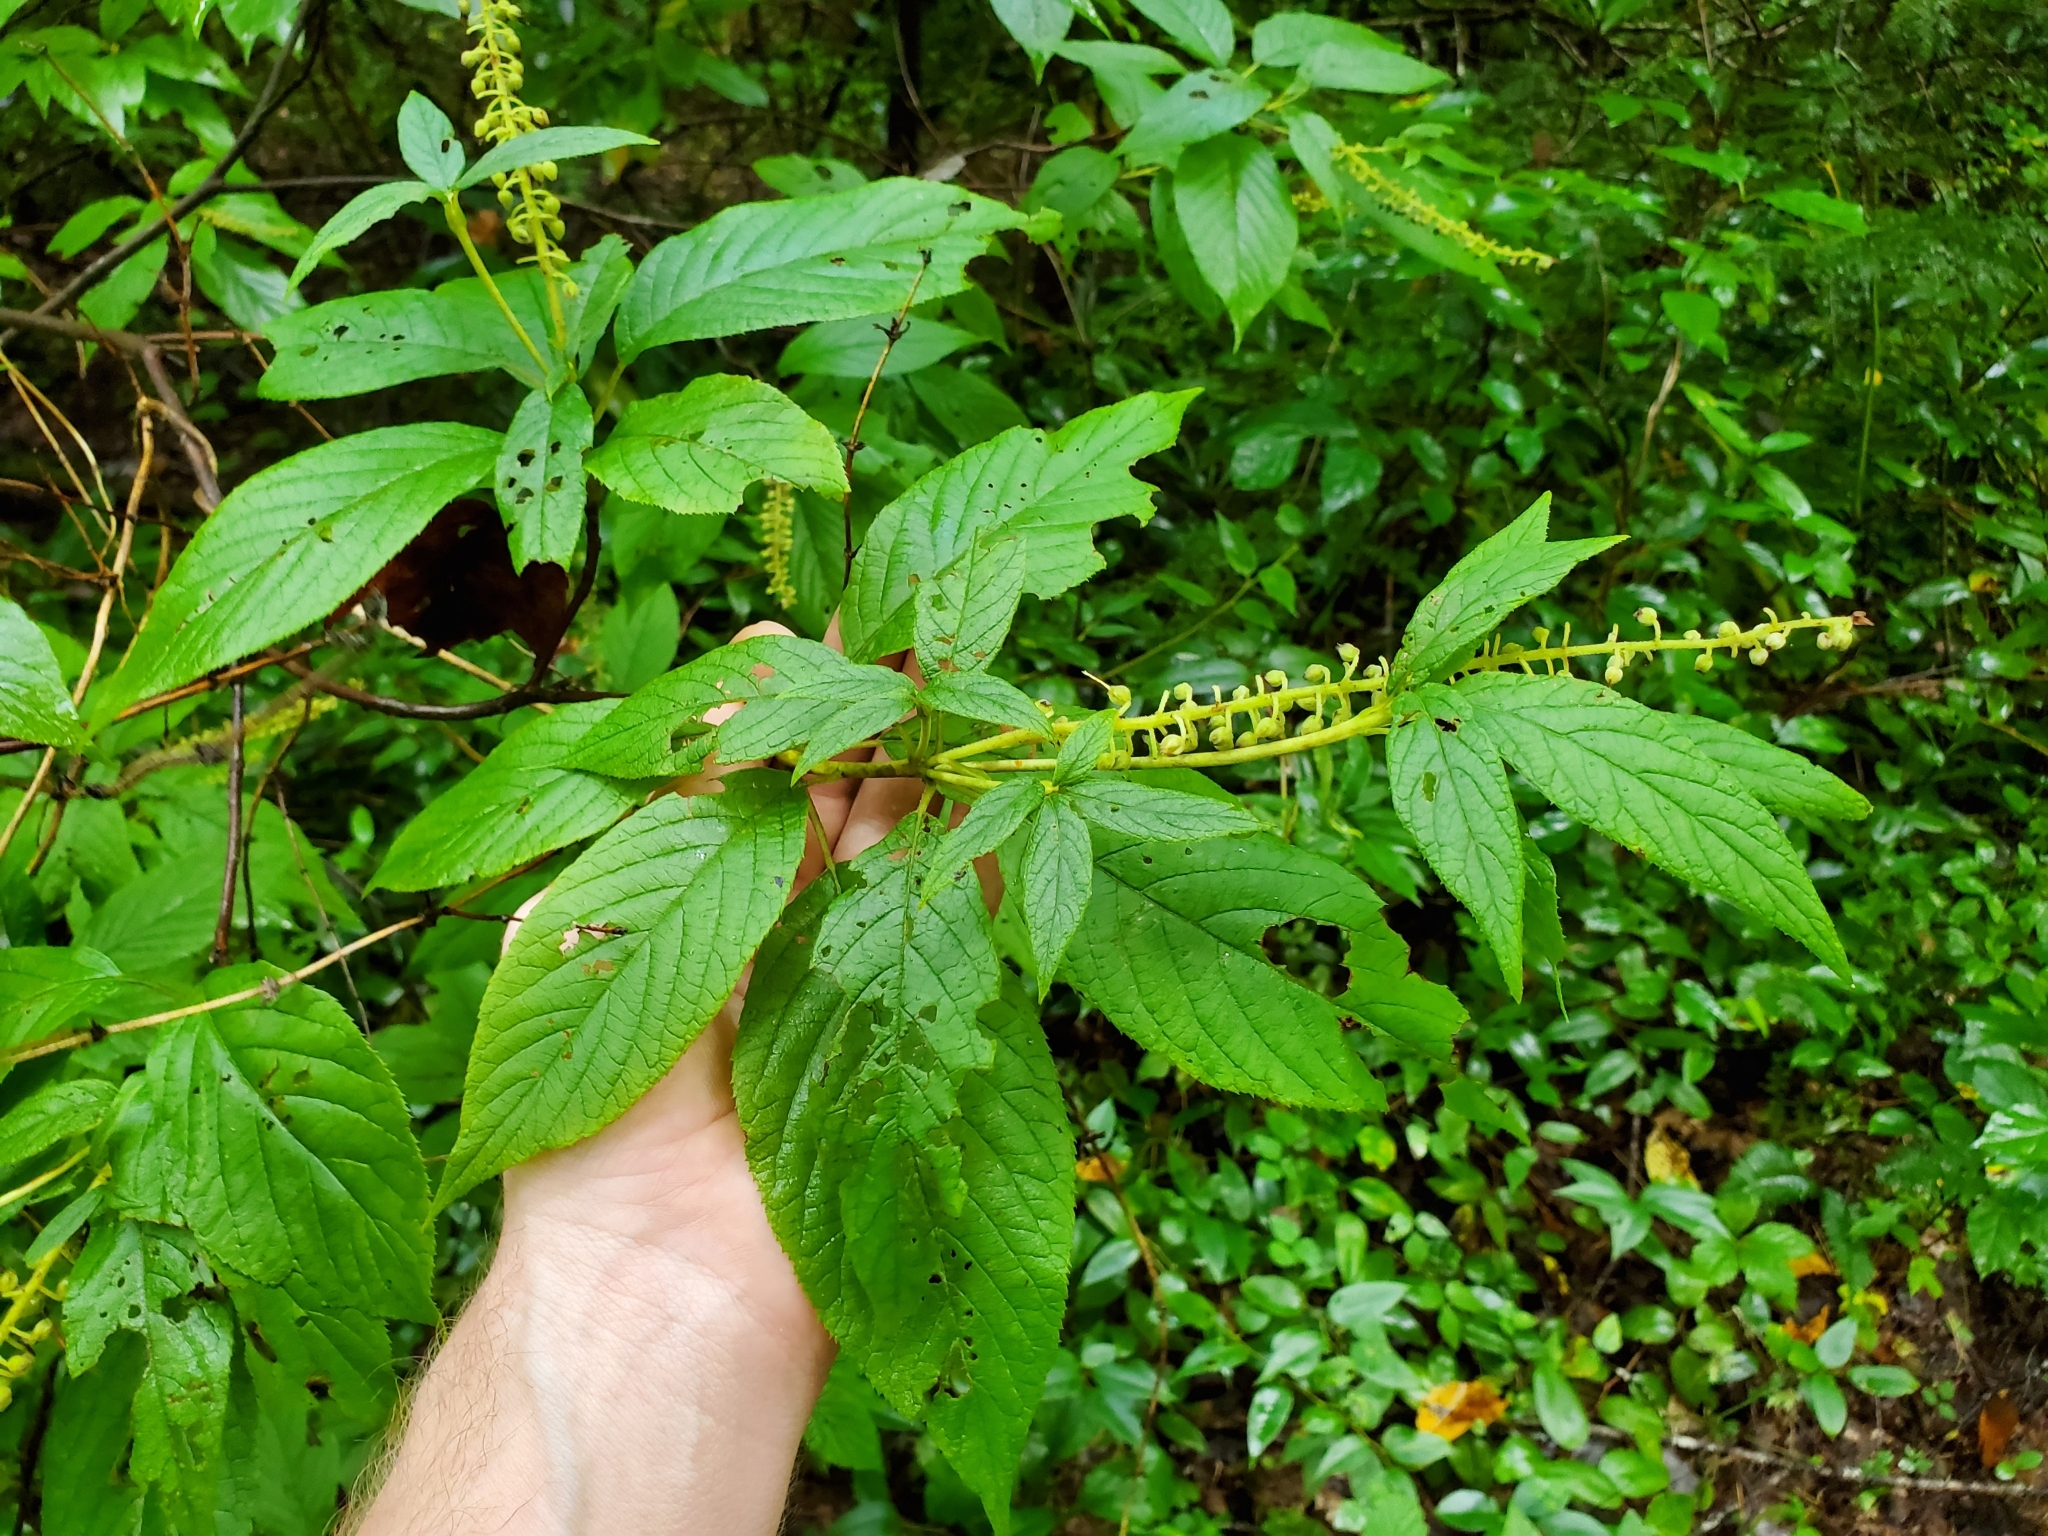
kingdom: Plantae
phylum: Tracheophyta
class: Magnoliopsida
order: Ericales
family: Clethraceae
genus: Clethra
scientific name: Clethra acuminata
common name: Mountain sweet pepperbush
